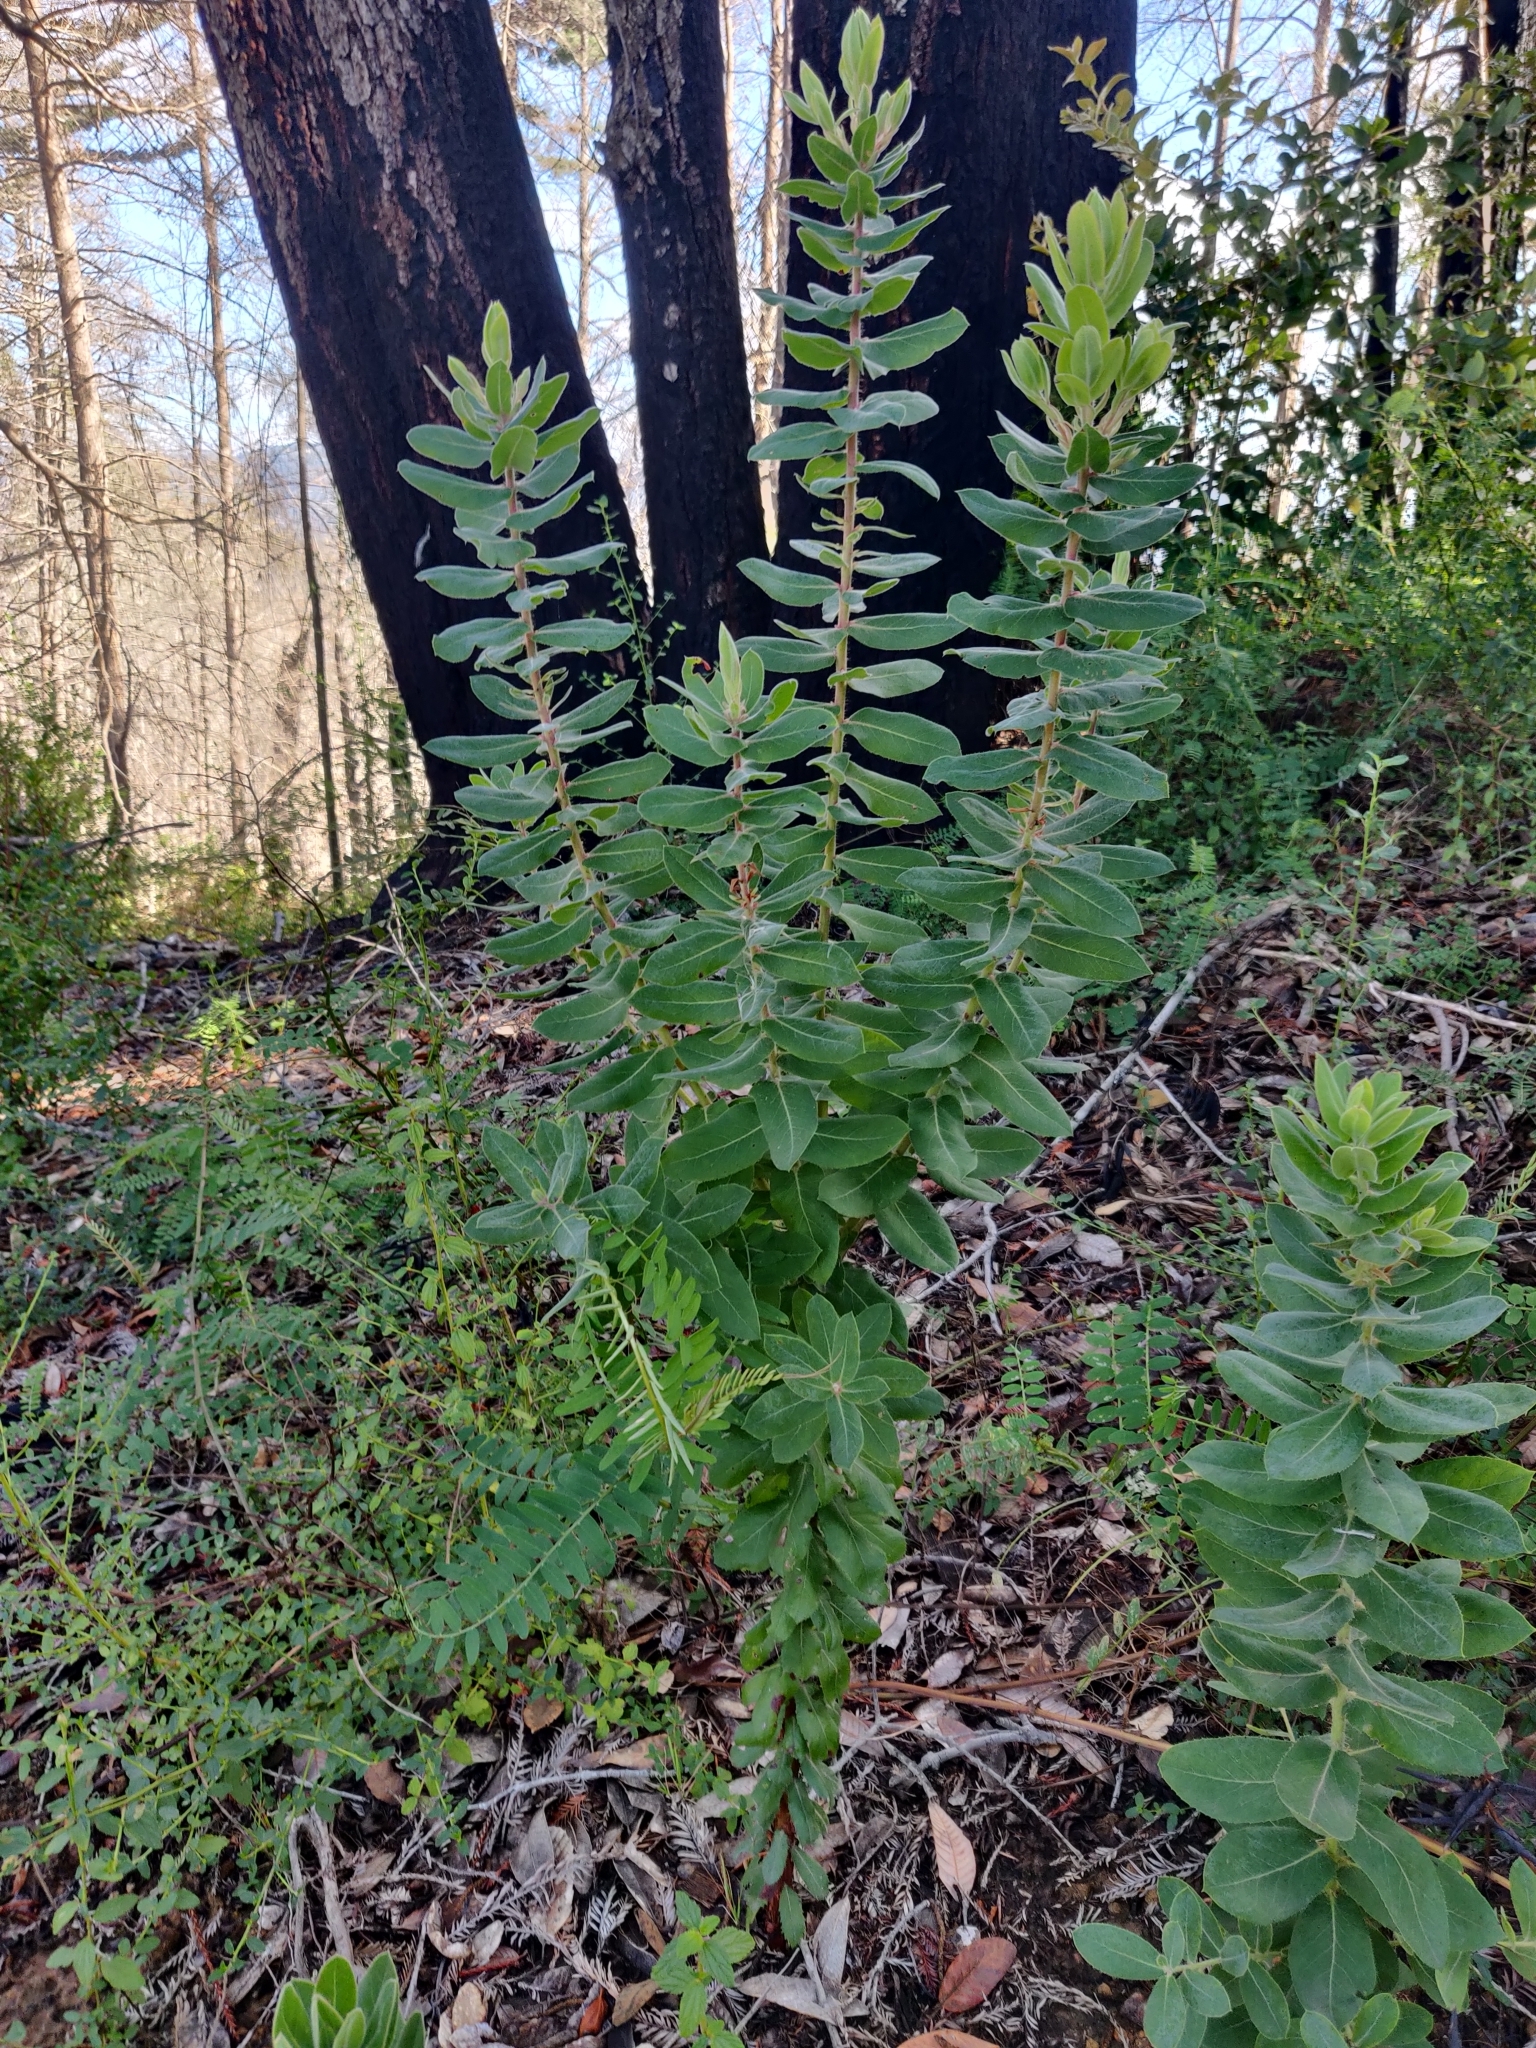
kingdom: Plantae
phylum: Tracheophyta
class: Magnoliopsida
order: Ericales
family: Ericaceae
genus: Arctostaphylos
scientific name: Arctostaphylos andersonii
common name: Santa cruz manzanita
